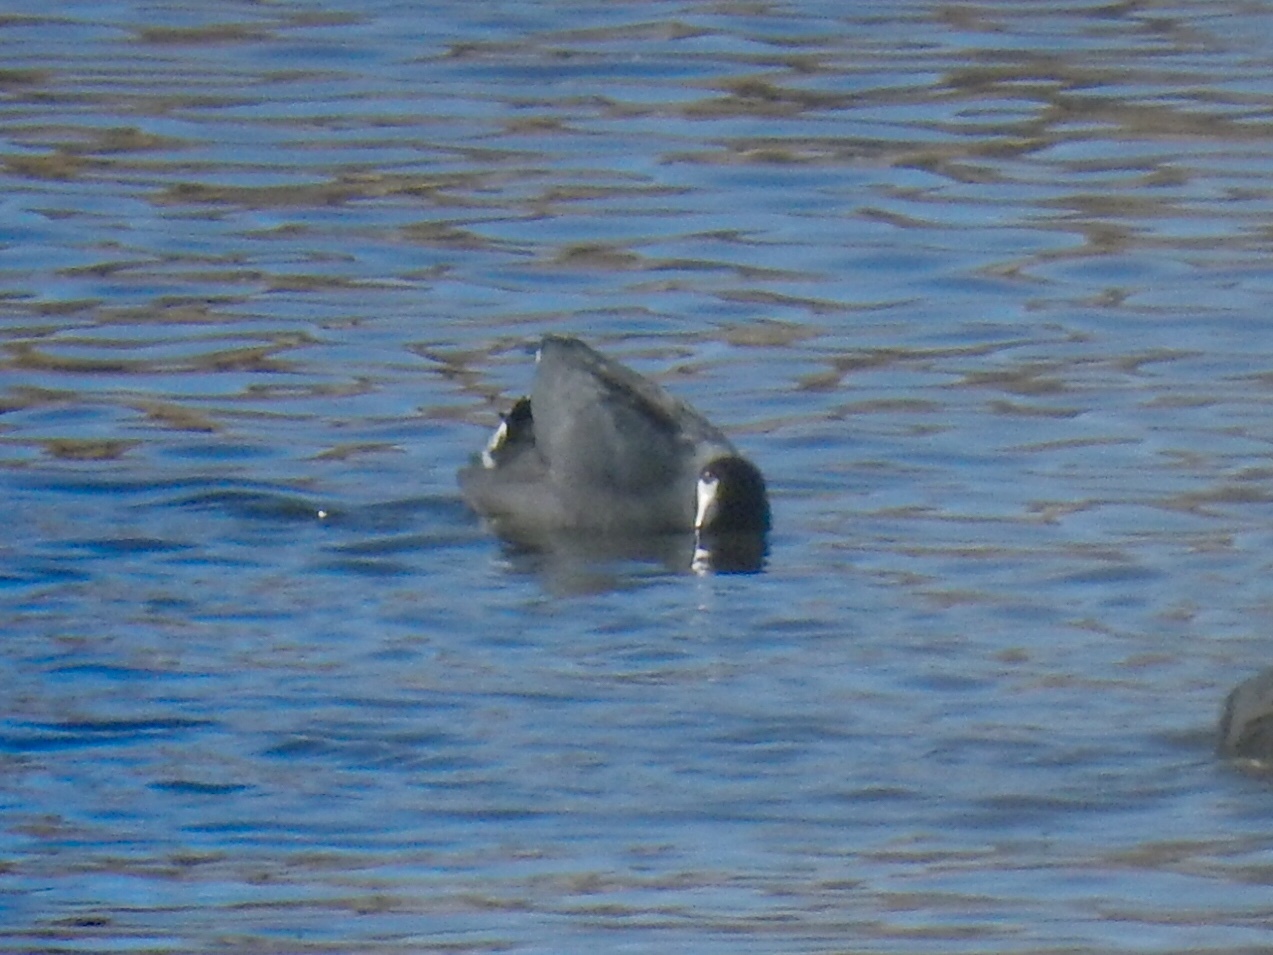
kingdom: Animalia
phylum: Chordata
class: Aves
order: Gruiformes
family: Rallidae
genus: Fulica
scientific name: Fulica americana
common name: American coot
